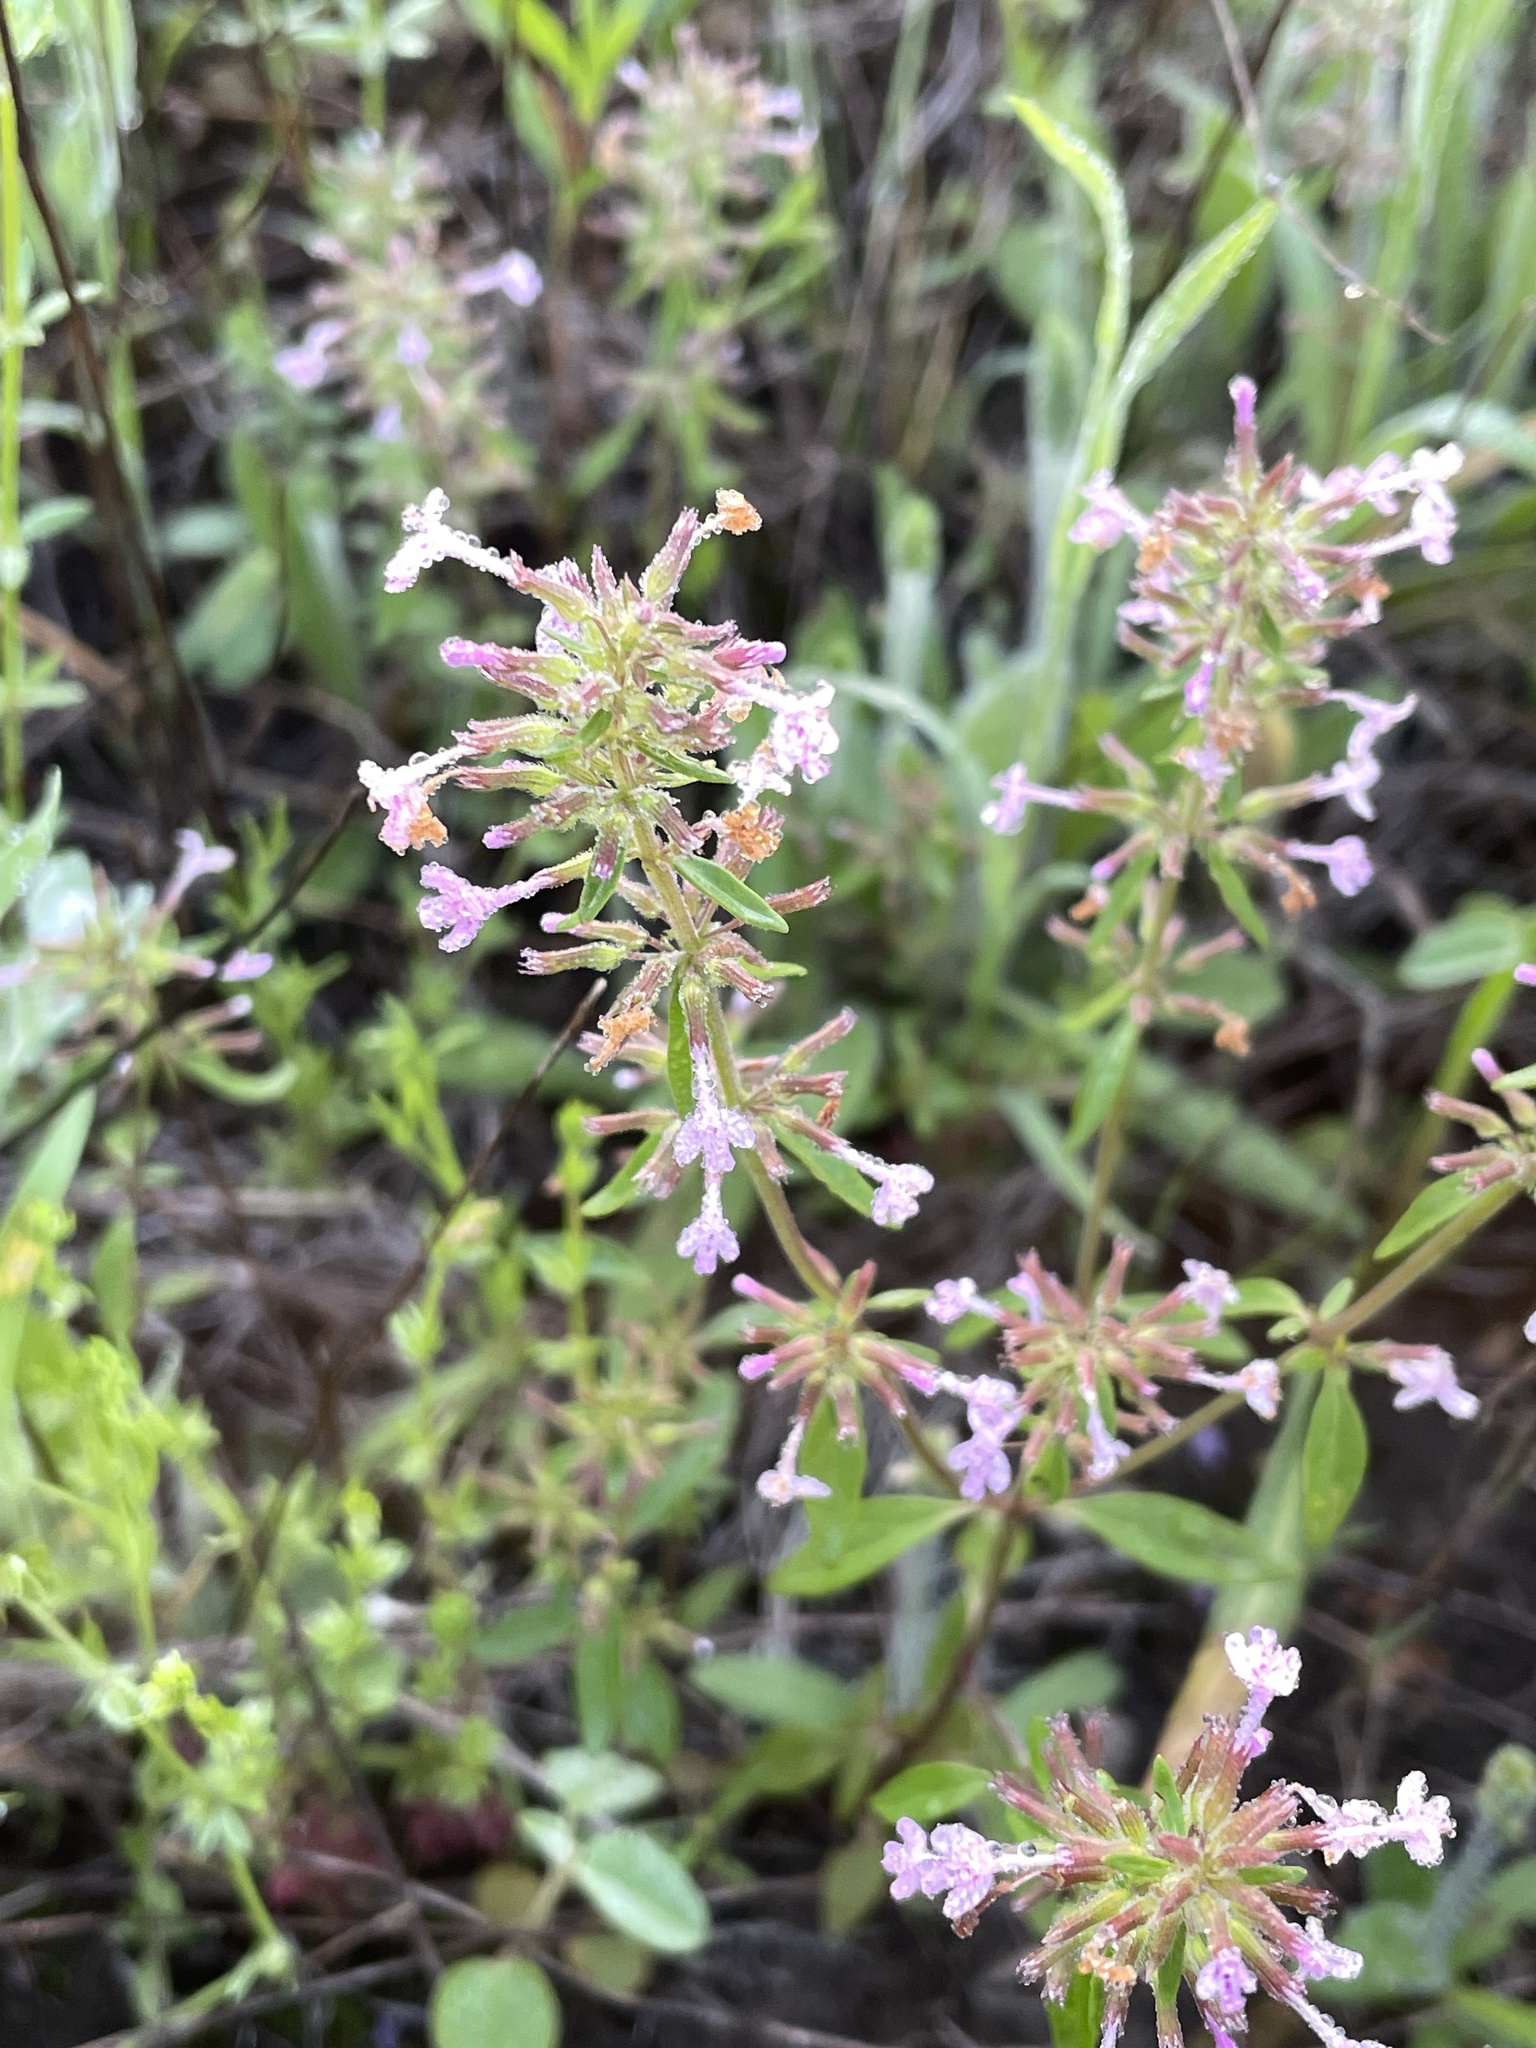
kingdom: Plantae
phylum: Tracheophyta
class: Magnoliopsida
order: Lamiales
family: Lamiaceae
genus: Hedeoma
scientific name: Hedeoma acinoides
